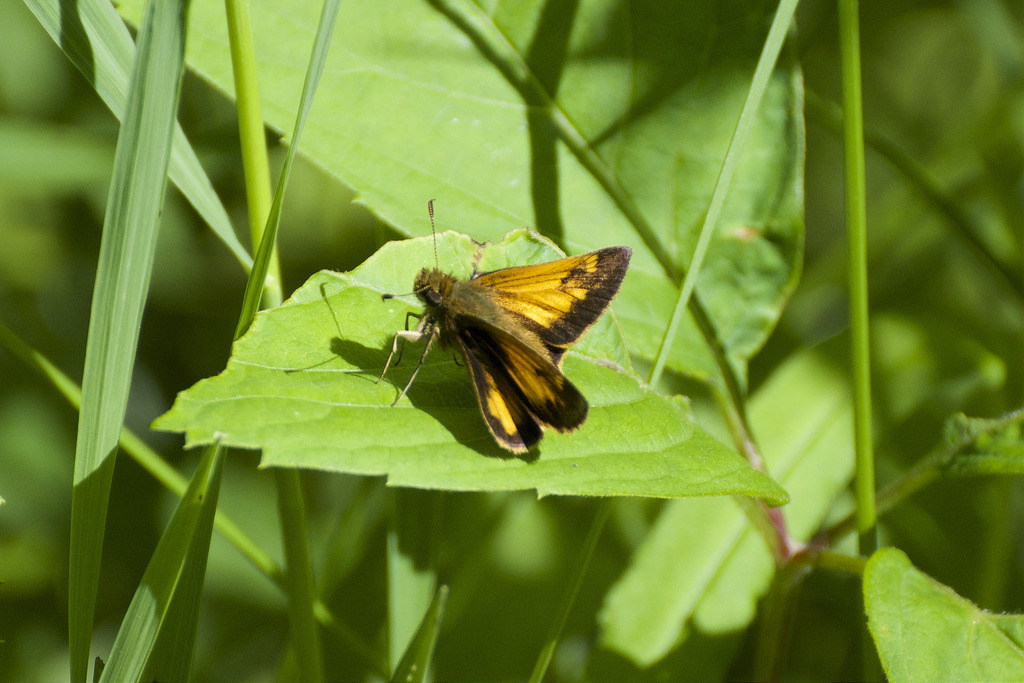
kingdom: Animalia
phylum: Arthropoda
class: Insecta
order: Lepidoptera
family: Hesperiidae
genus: Lon
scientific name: Lon hobomok
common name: Hobomok skipper
